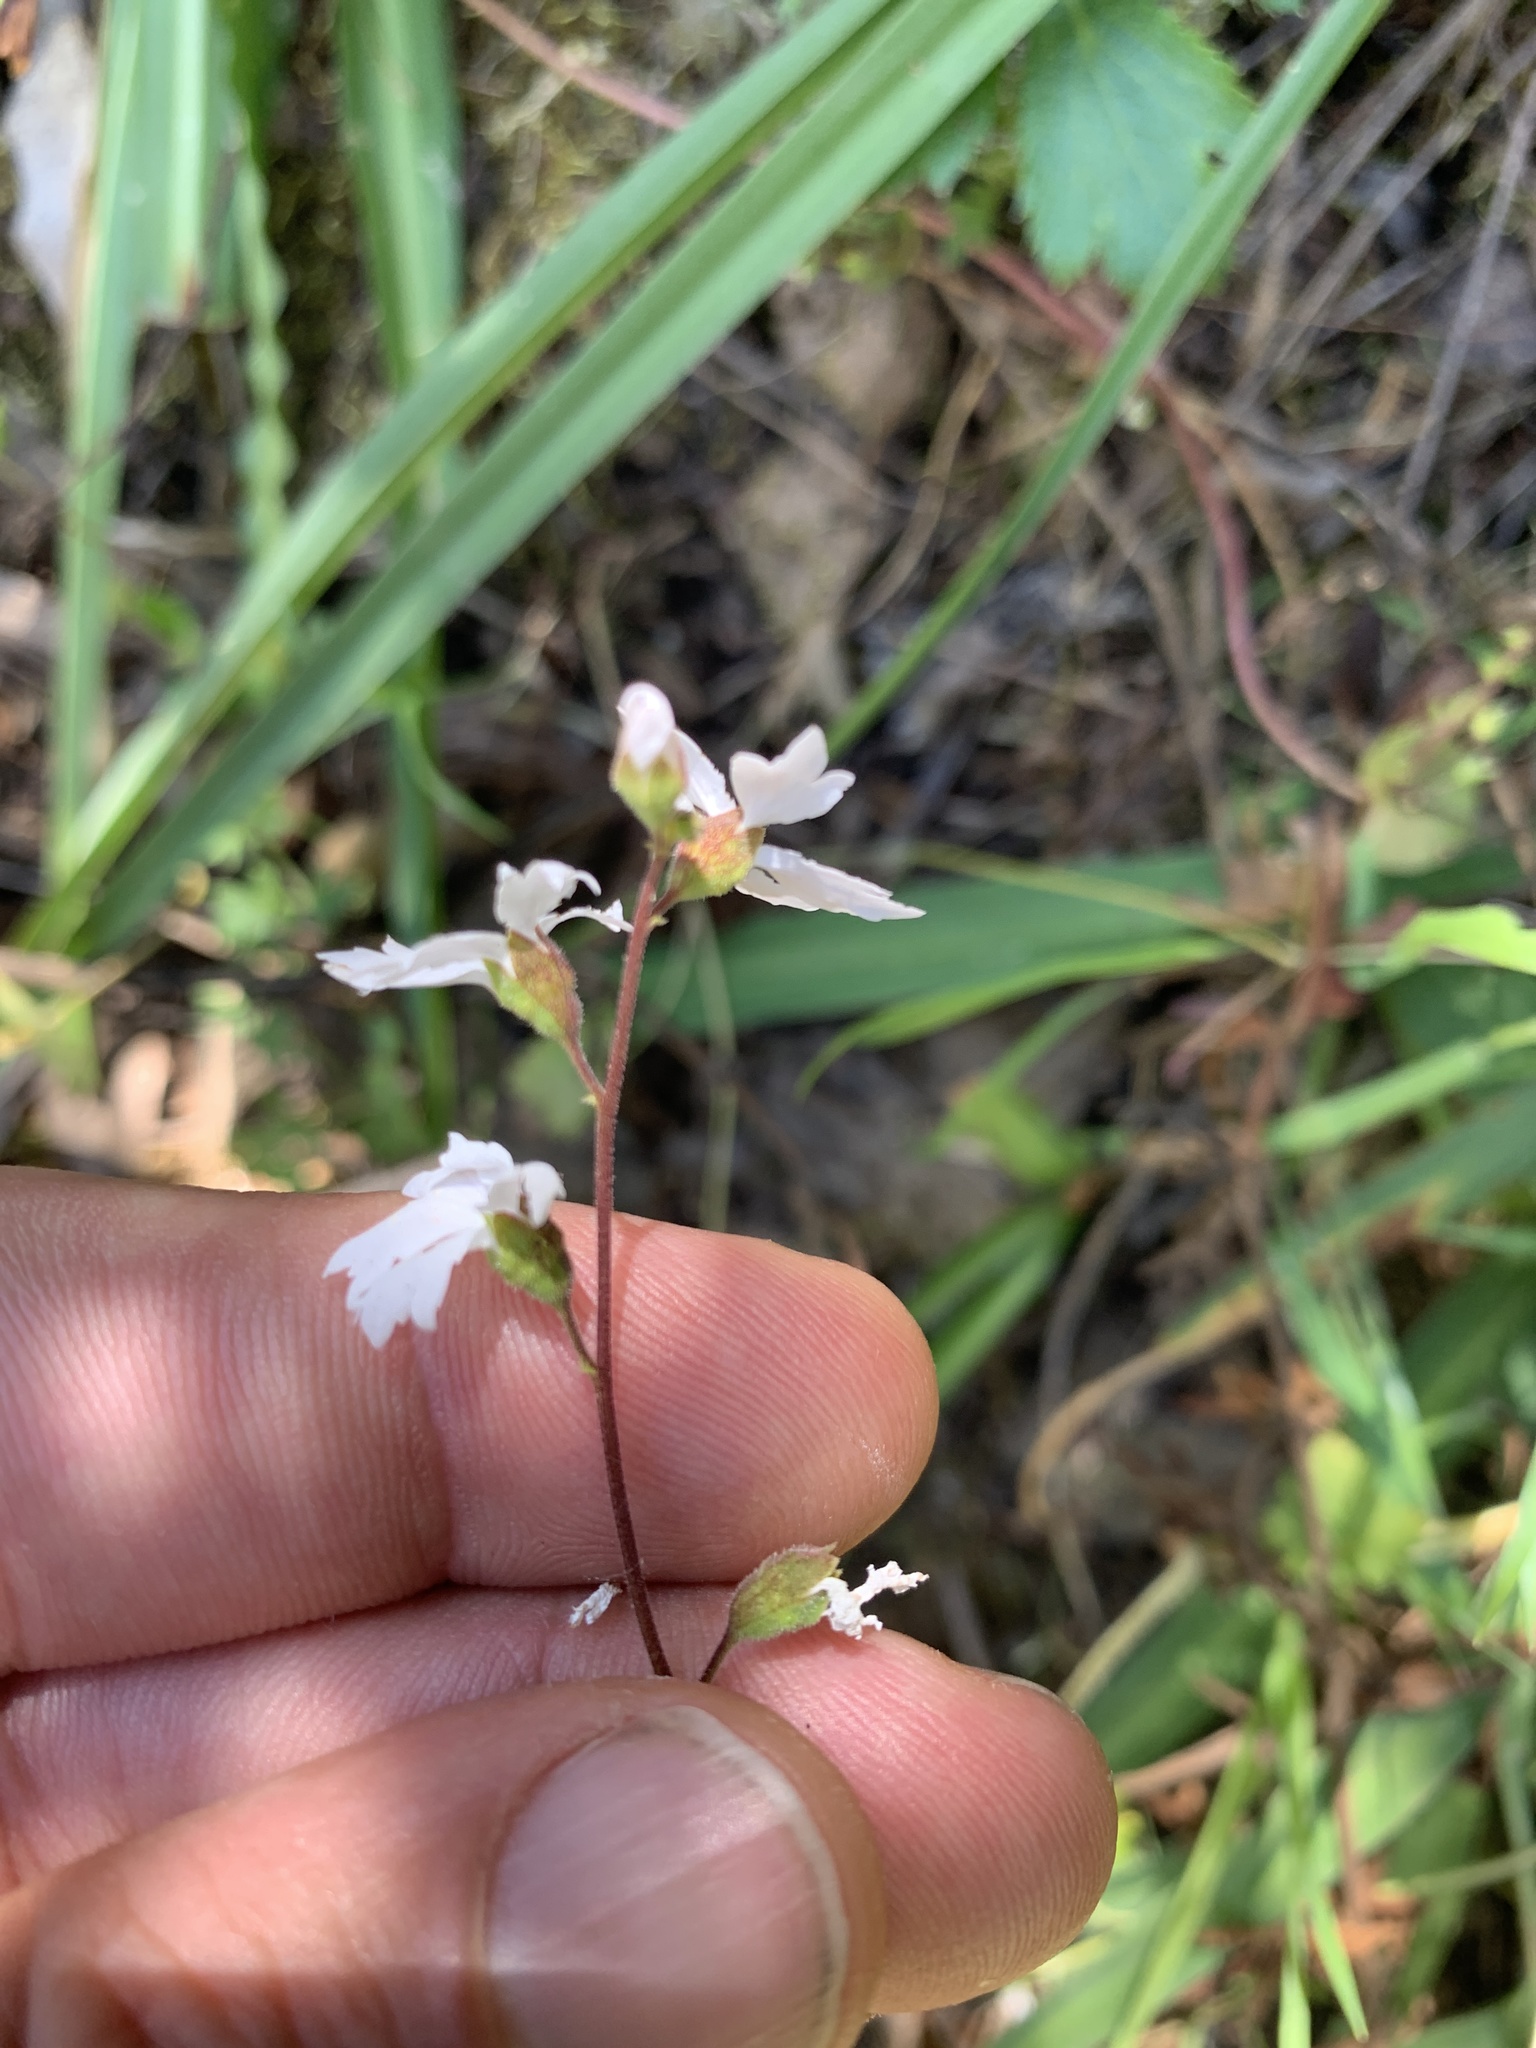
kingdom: Plantae
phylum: Tracheophyta
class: Magnoliopsida
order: Saxifragales
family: Saxifragaceae
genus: Lithophragma
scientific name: Lithophragma affine
